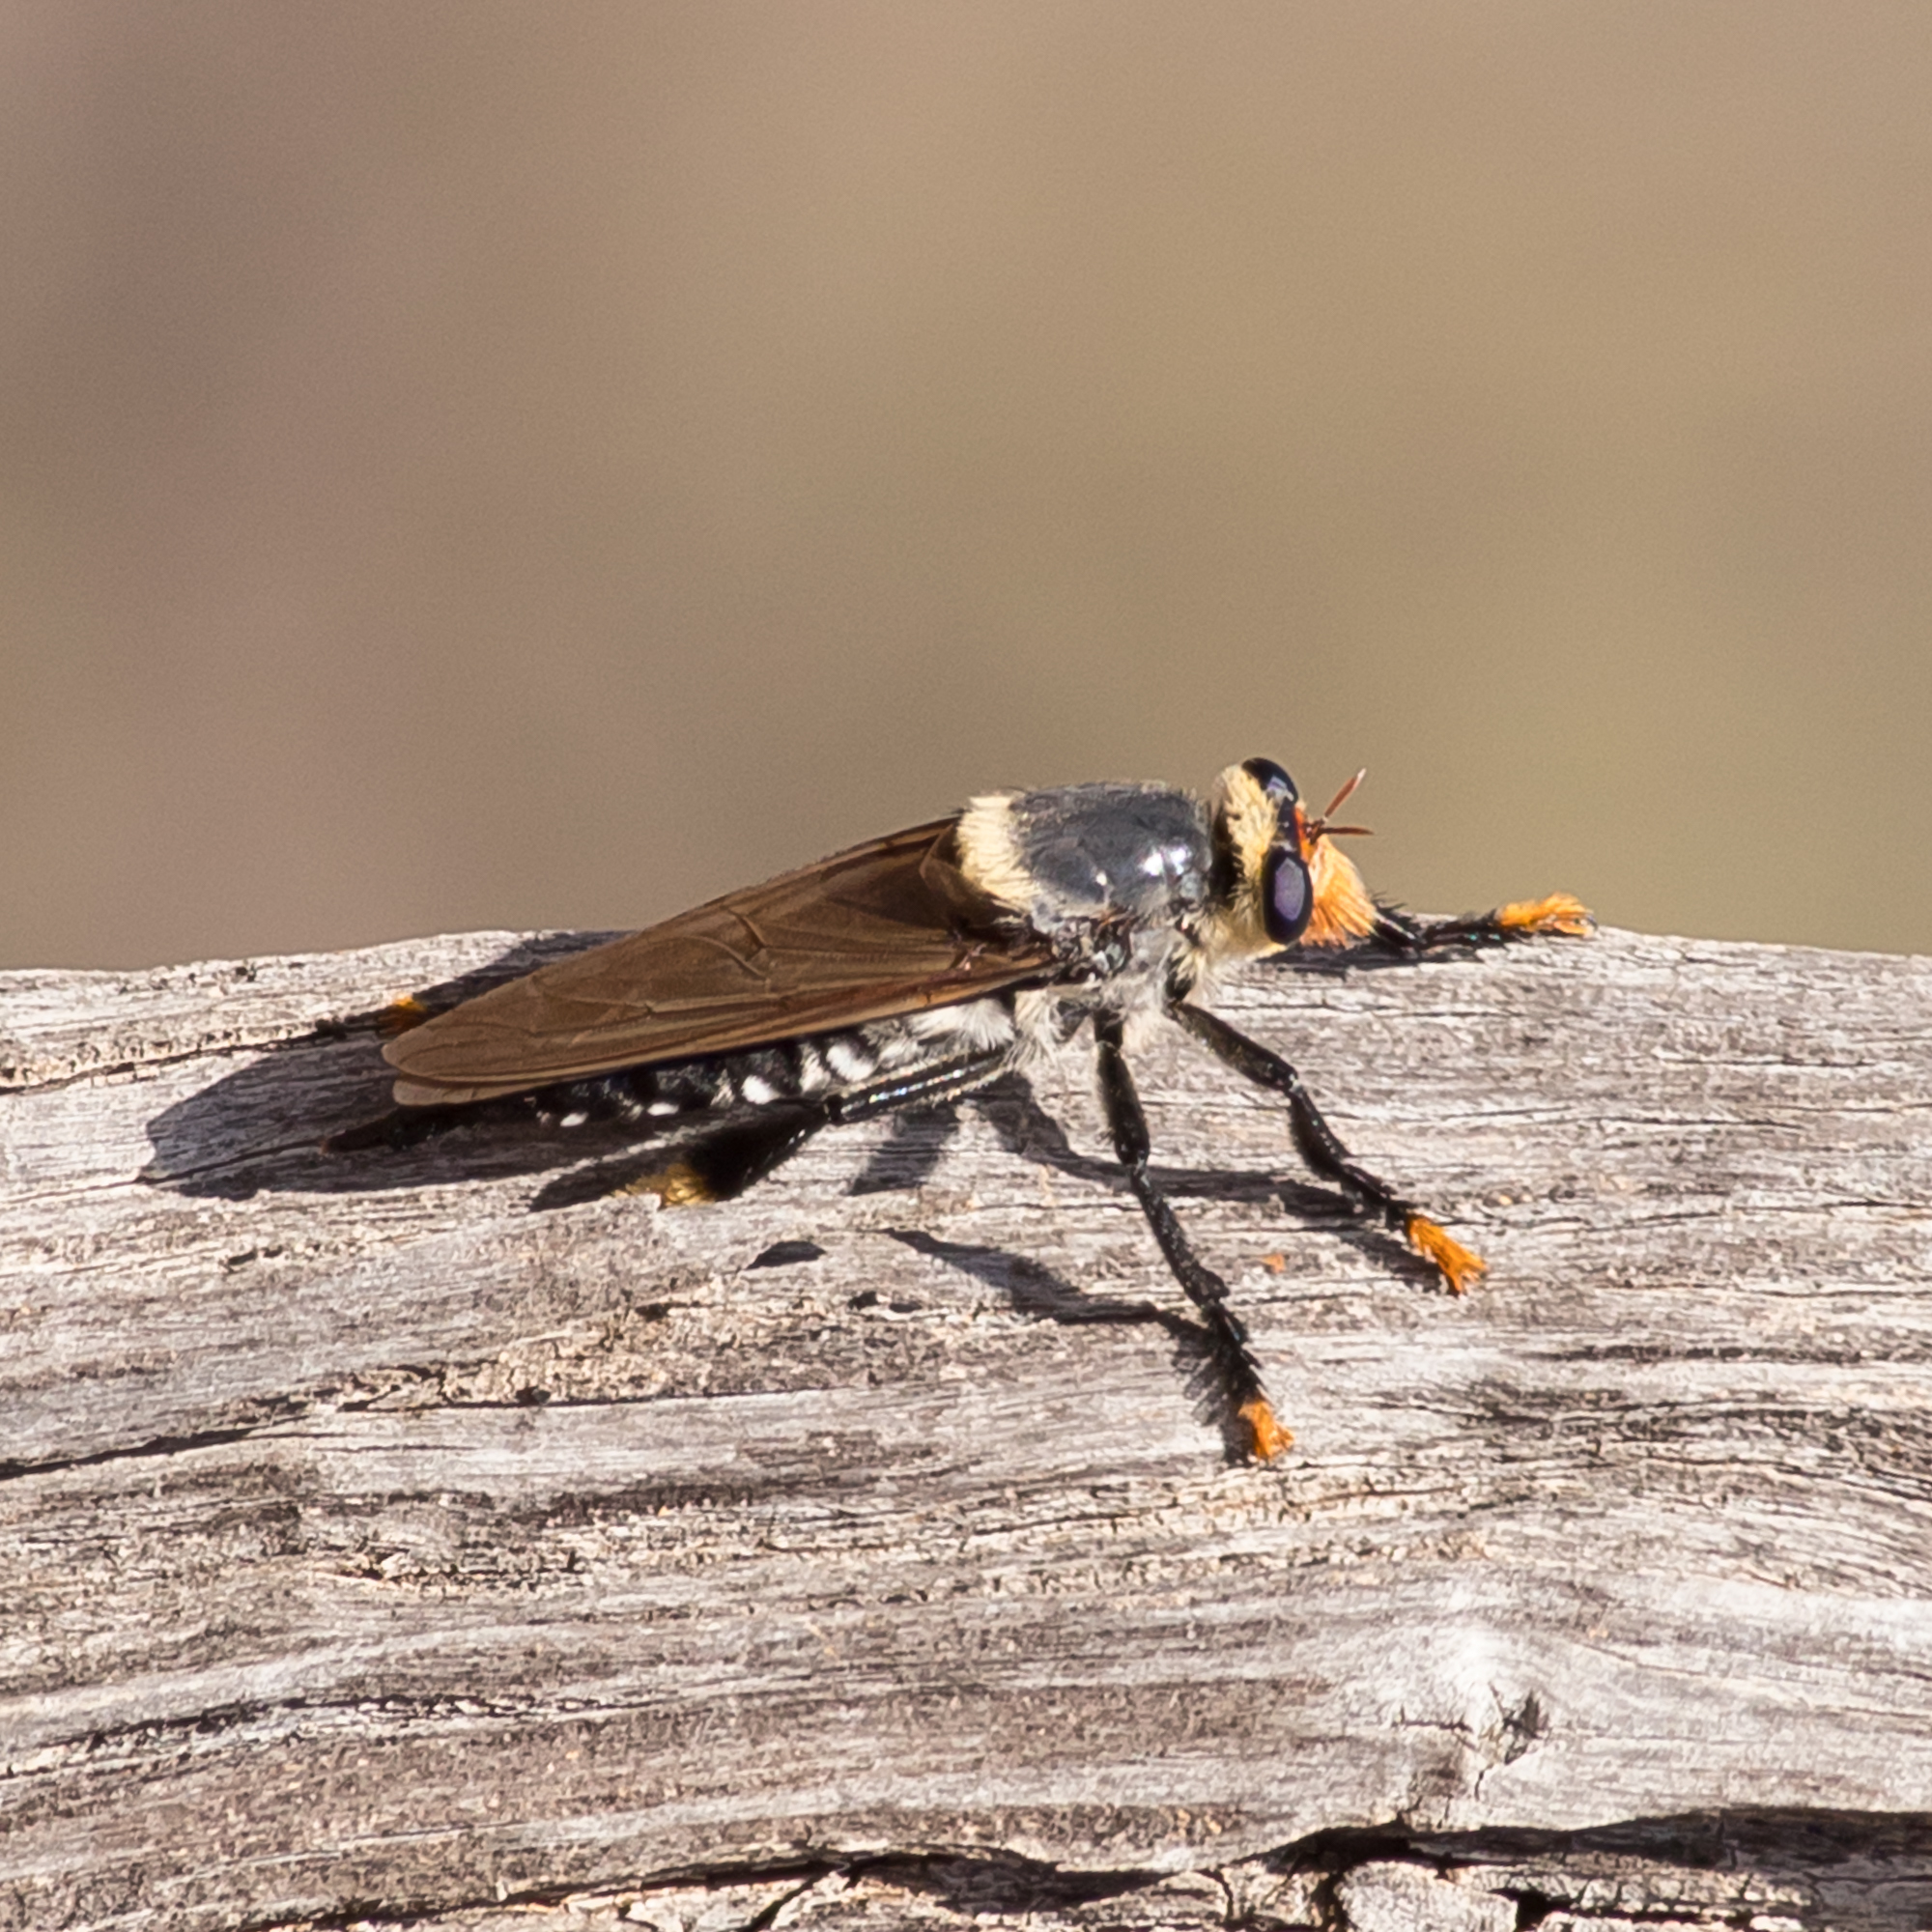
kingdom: Animalia
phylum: Arthropoda
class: Insecta
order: Diptera
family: Asilidae
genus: Phellus
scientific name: Phellus olgae
